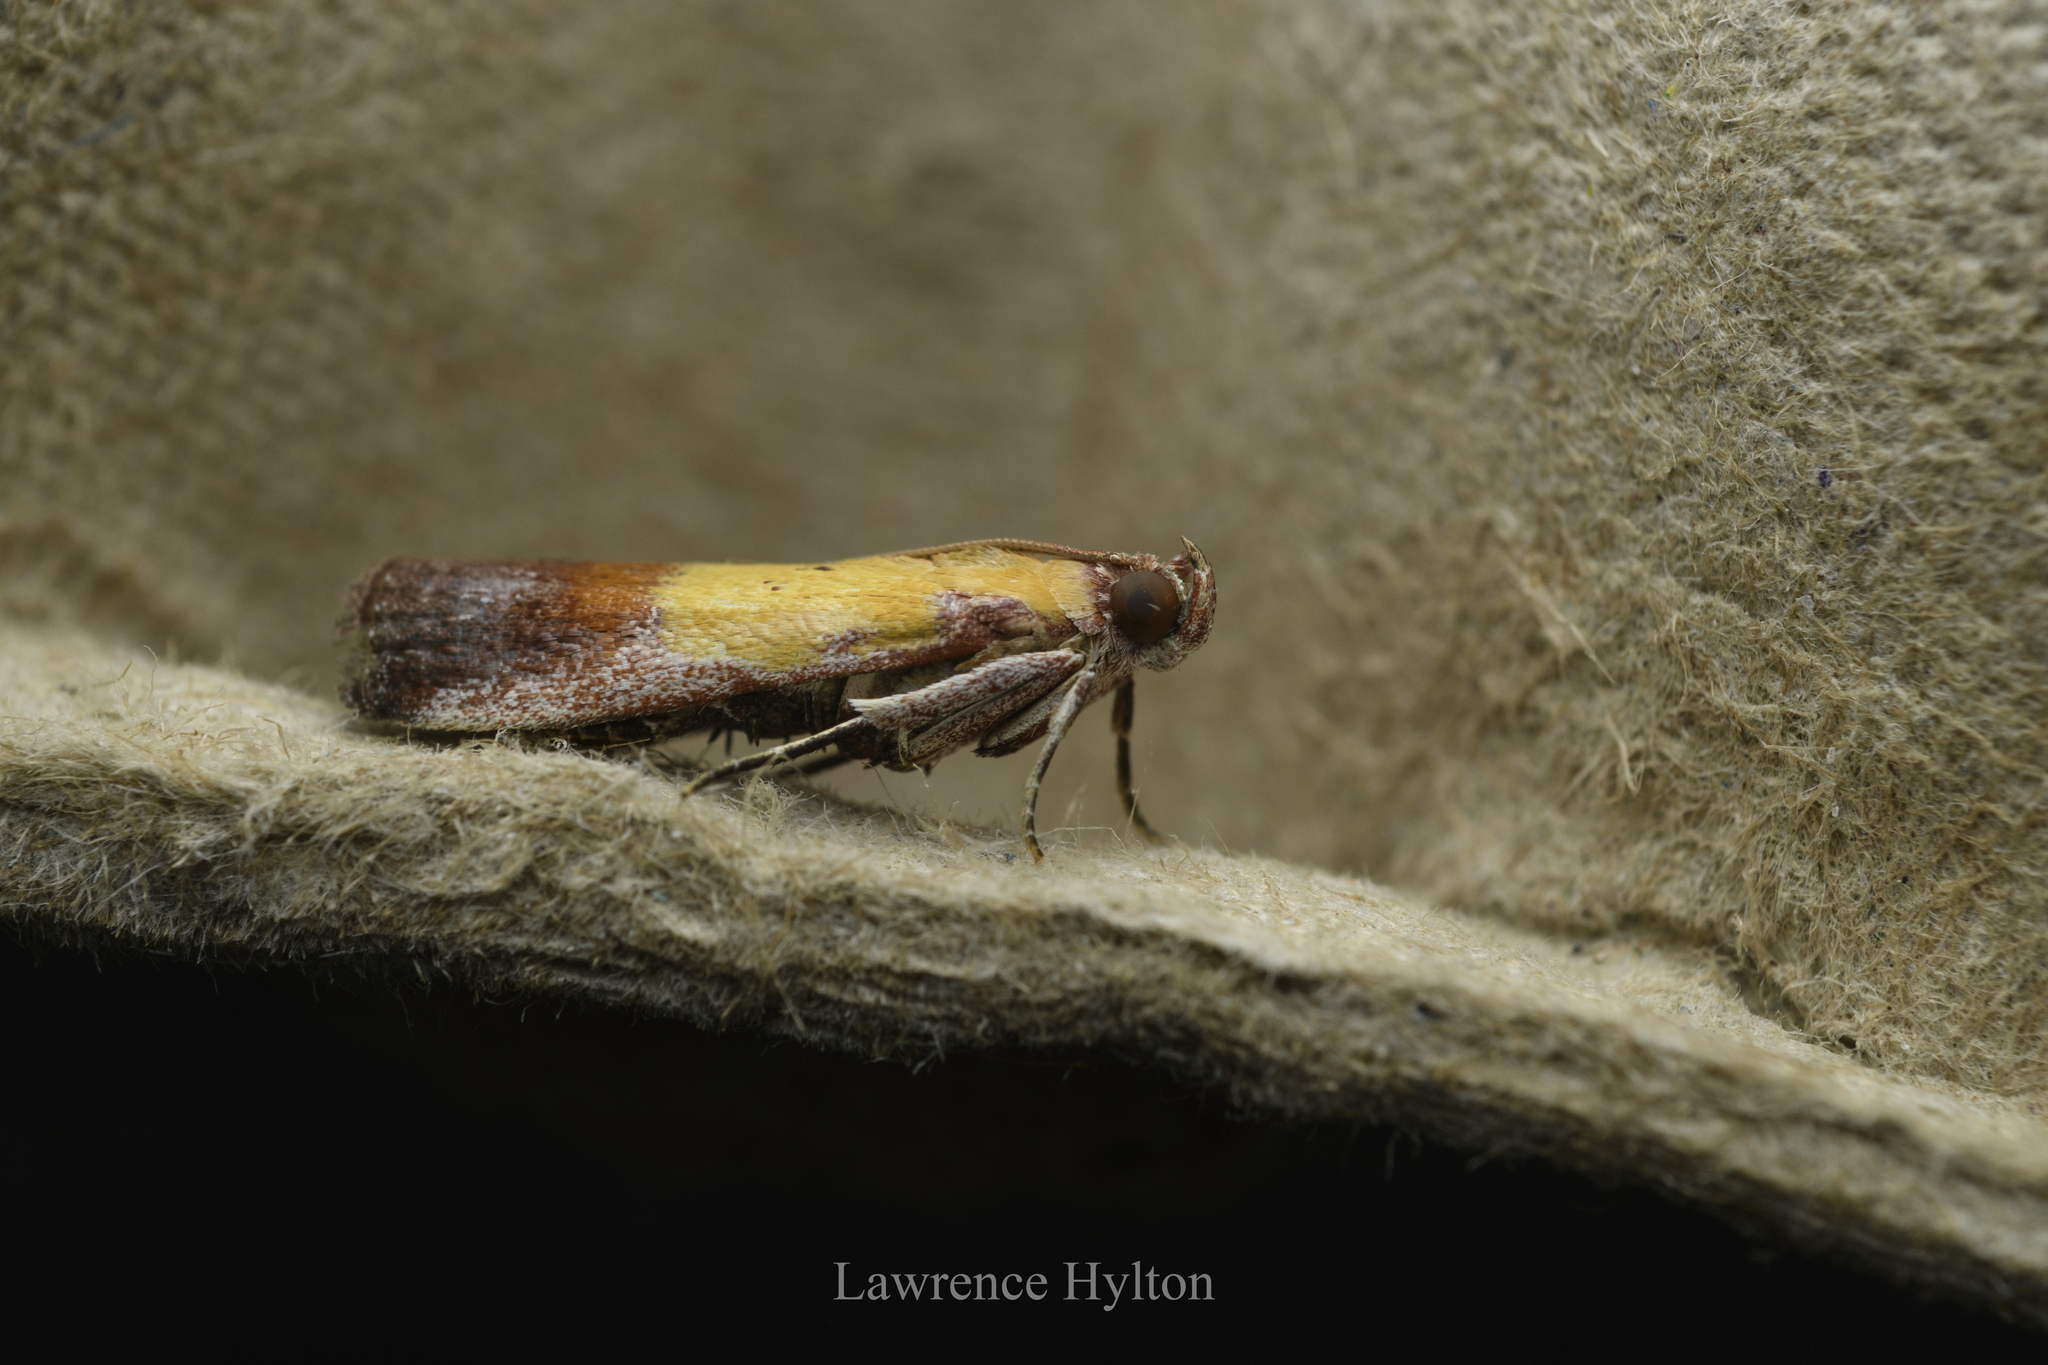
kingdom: Animalia
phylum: Arthropoda
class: Insecta
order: Lepidoptera
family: Pyralidae
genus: Piesmopoda
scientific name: Piesmopoda
